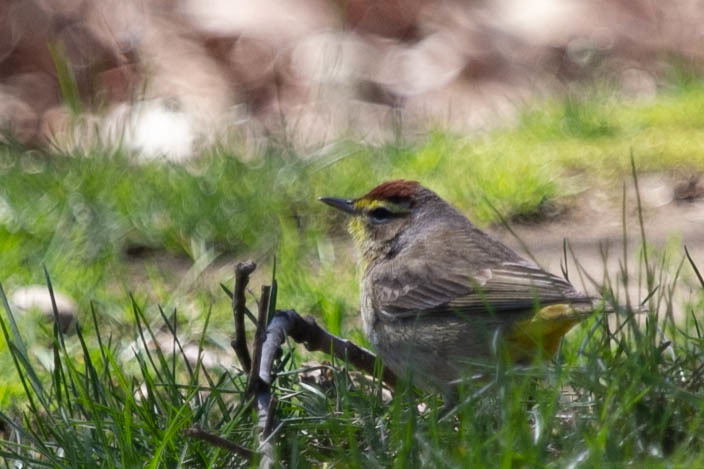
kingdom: Animalia
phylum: Chordata
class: Aves
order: Passeriformes
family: Parulidae
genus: Setophaga
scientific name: Setophaga palmarum
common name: Palm warbler
